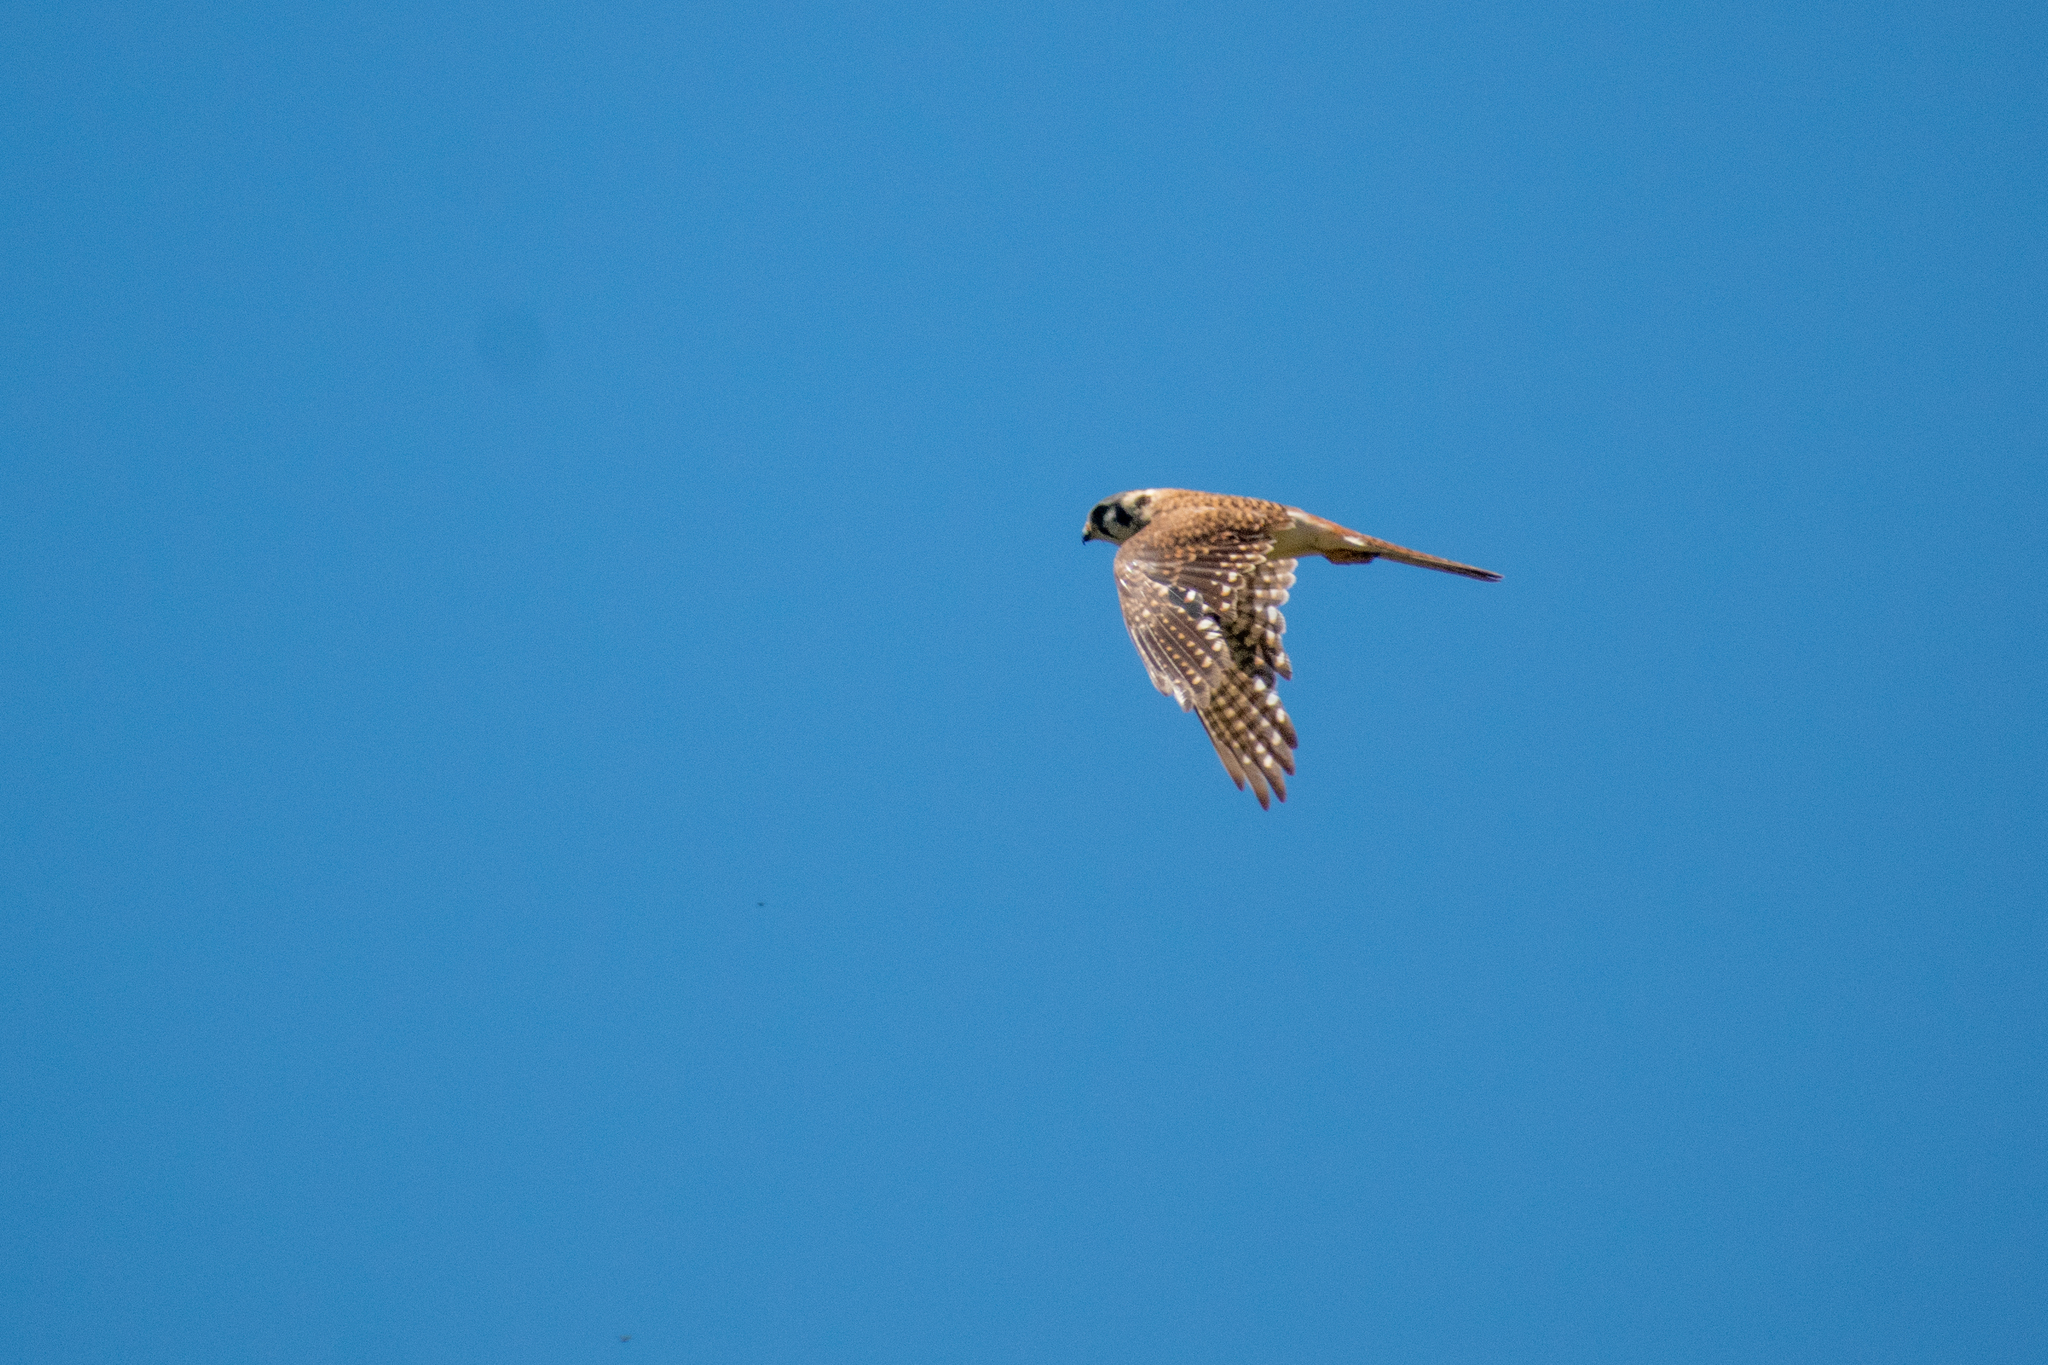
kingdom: Animalia
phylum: Chordata
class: Aves
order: Falconiformes
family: Falconidae
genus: Falco
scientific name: Falco sparverius
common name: American kestrel
